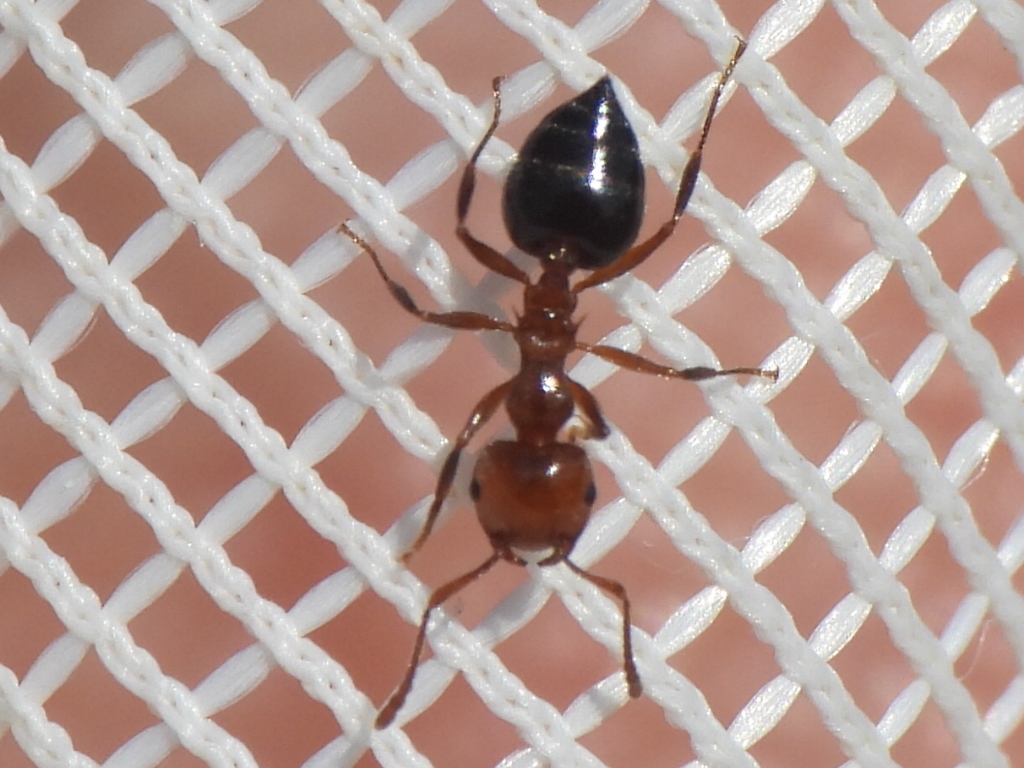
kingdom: Animalia
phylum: Arthropoda
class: Insecta
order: Hymenoptera
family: Formicidae
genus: Crematogaster
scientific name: Crematogaster laeviuscula
